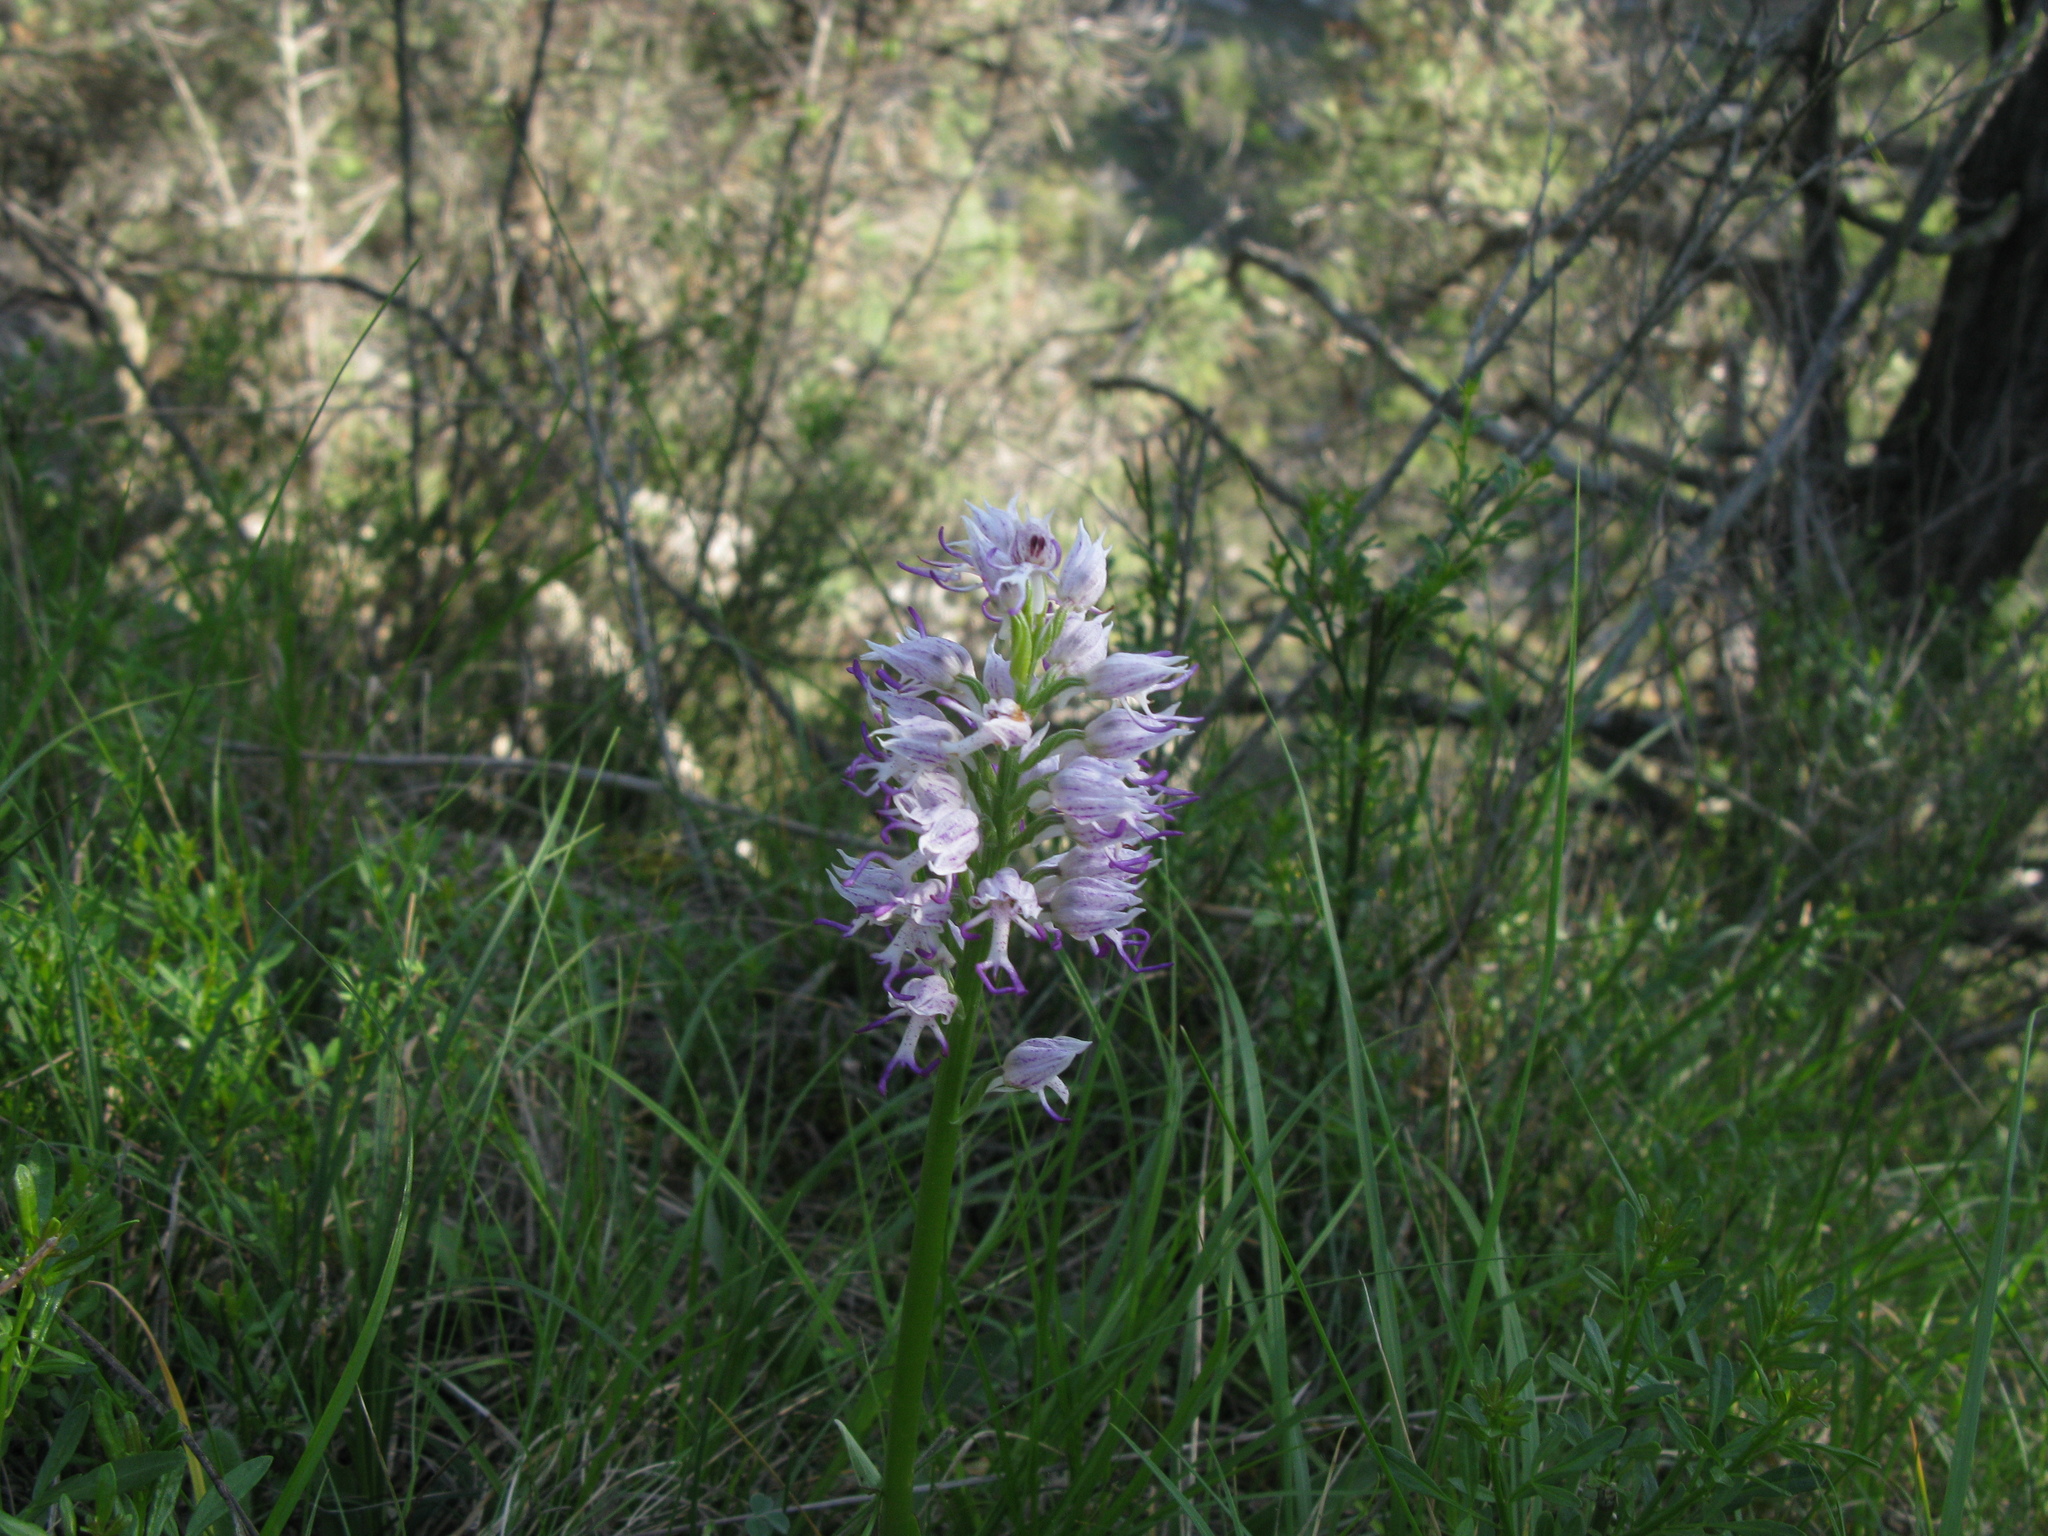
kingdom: Plantae
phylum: Tracheophyta
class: Liliopsida
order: Asparagales
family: Orchidaceae
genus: Orchis
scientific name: Orchis simia
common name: Monkey orchid
